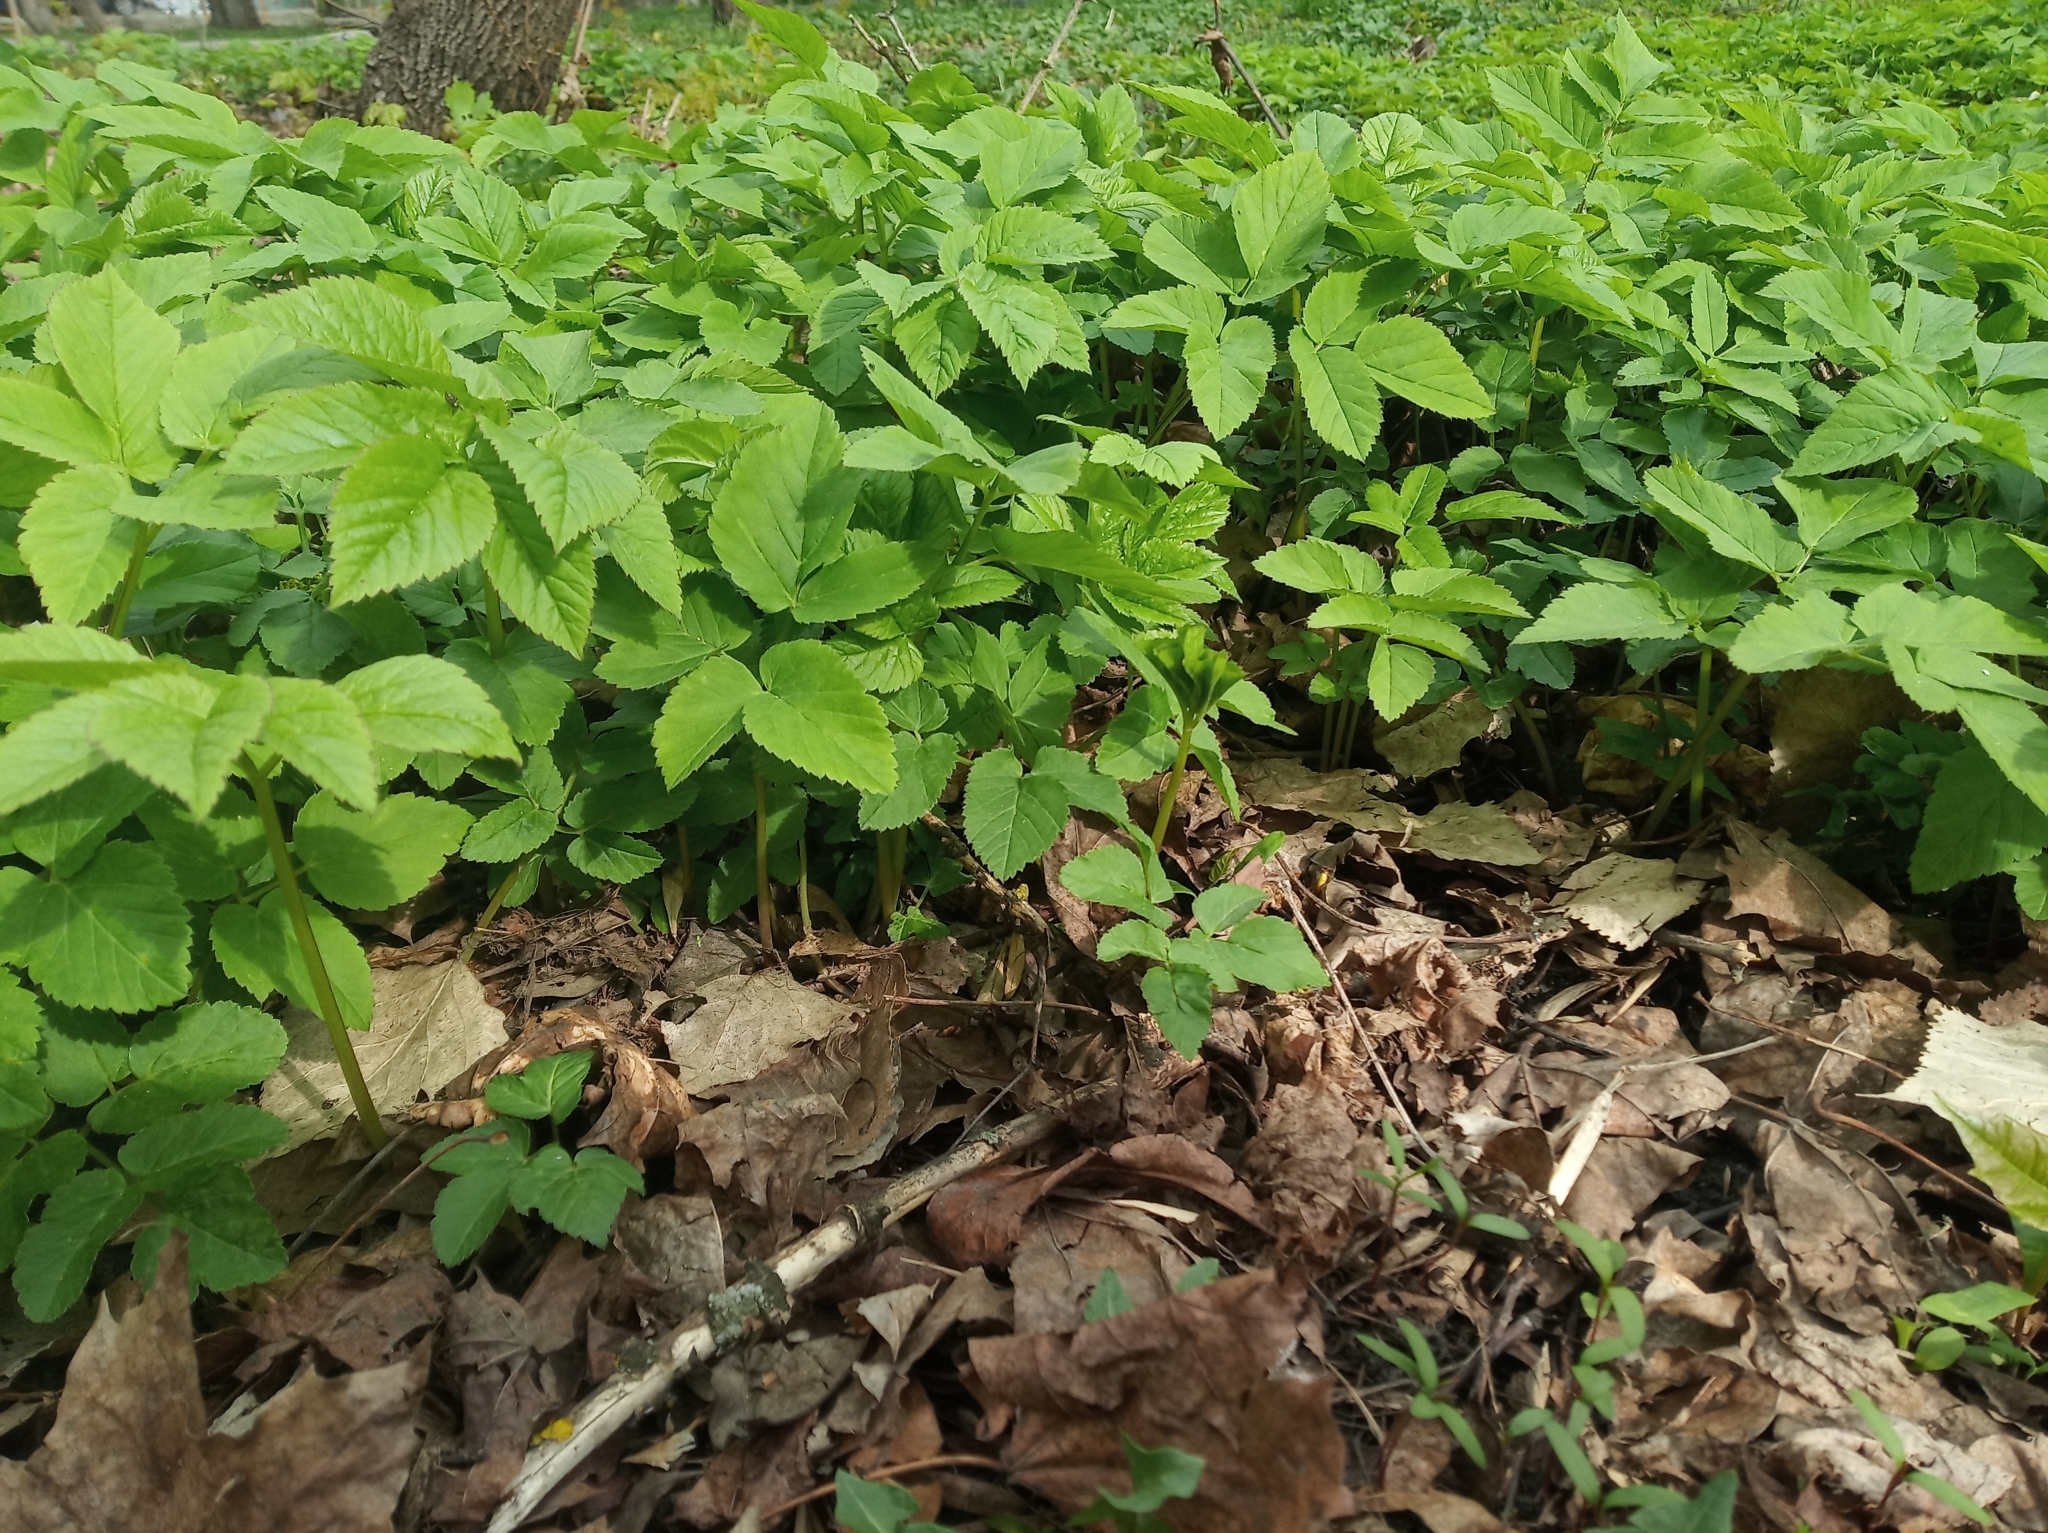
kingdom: Plantae
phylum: Tracheophyta
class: Magnoliopsida
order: Apiales
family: Apiaceae
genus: Aegopodium
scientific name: Aegopodium podagraria
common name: Ground-elder
